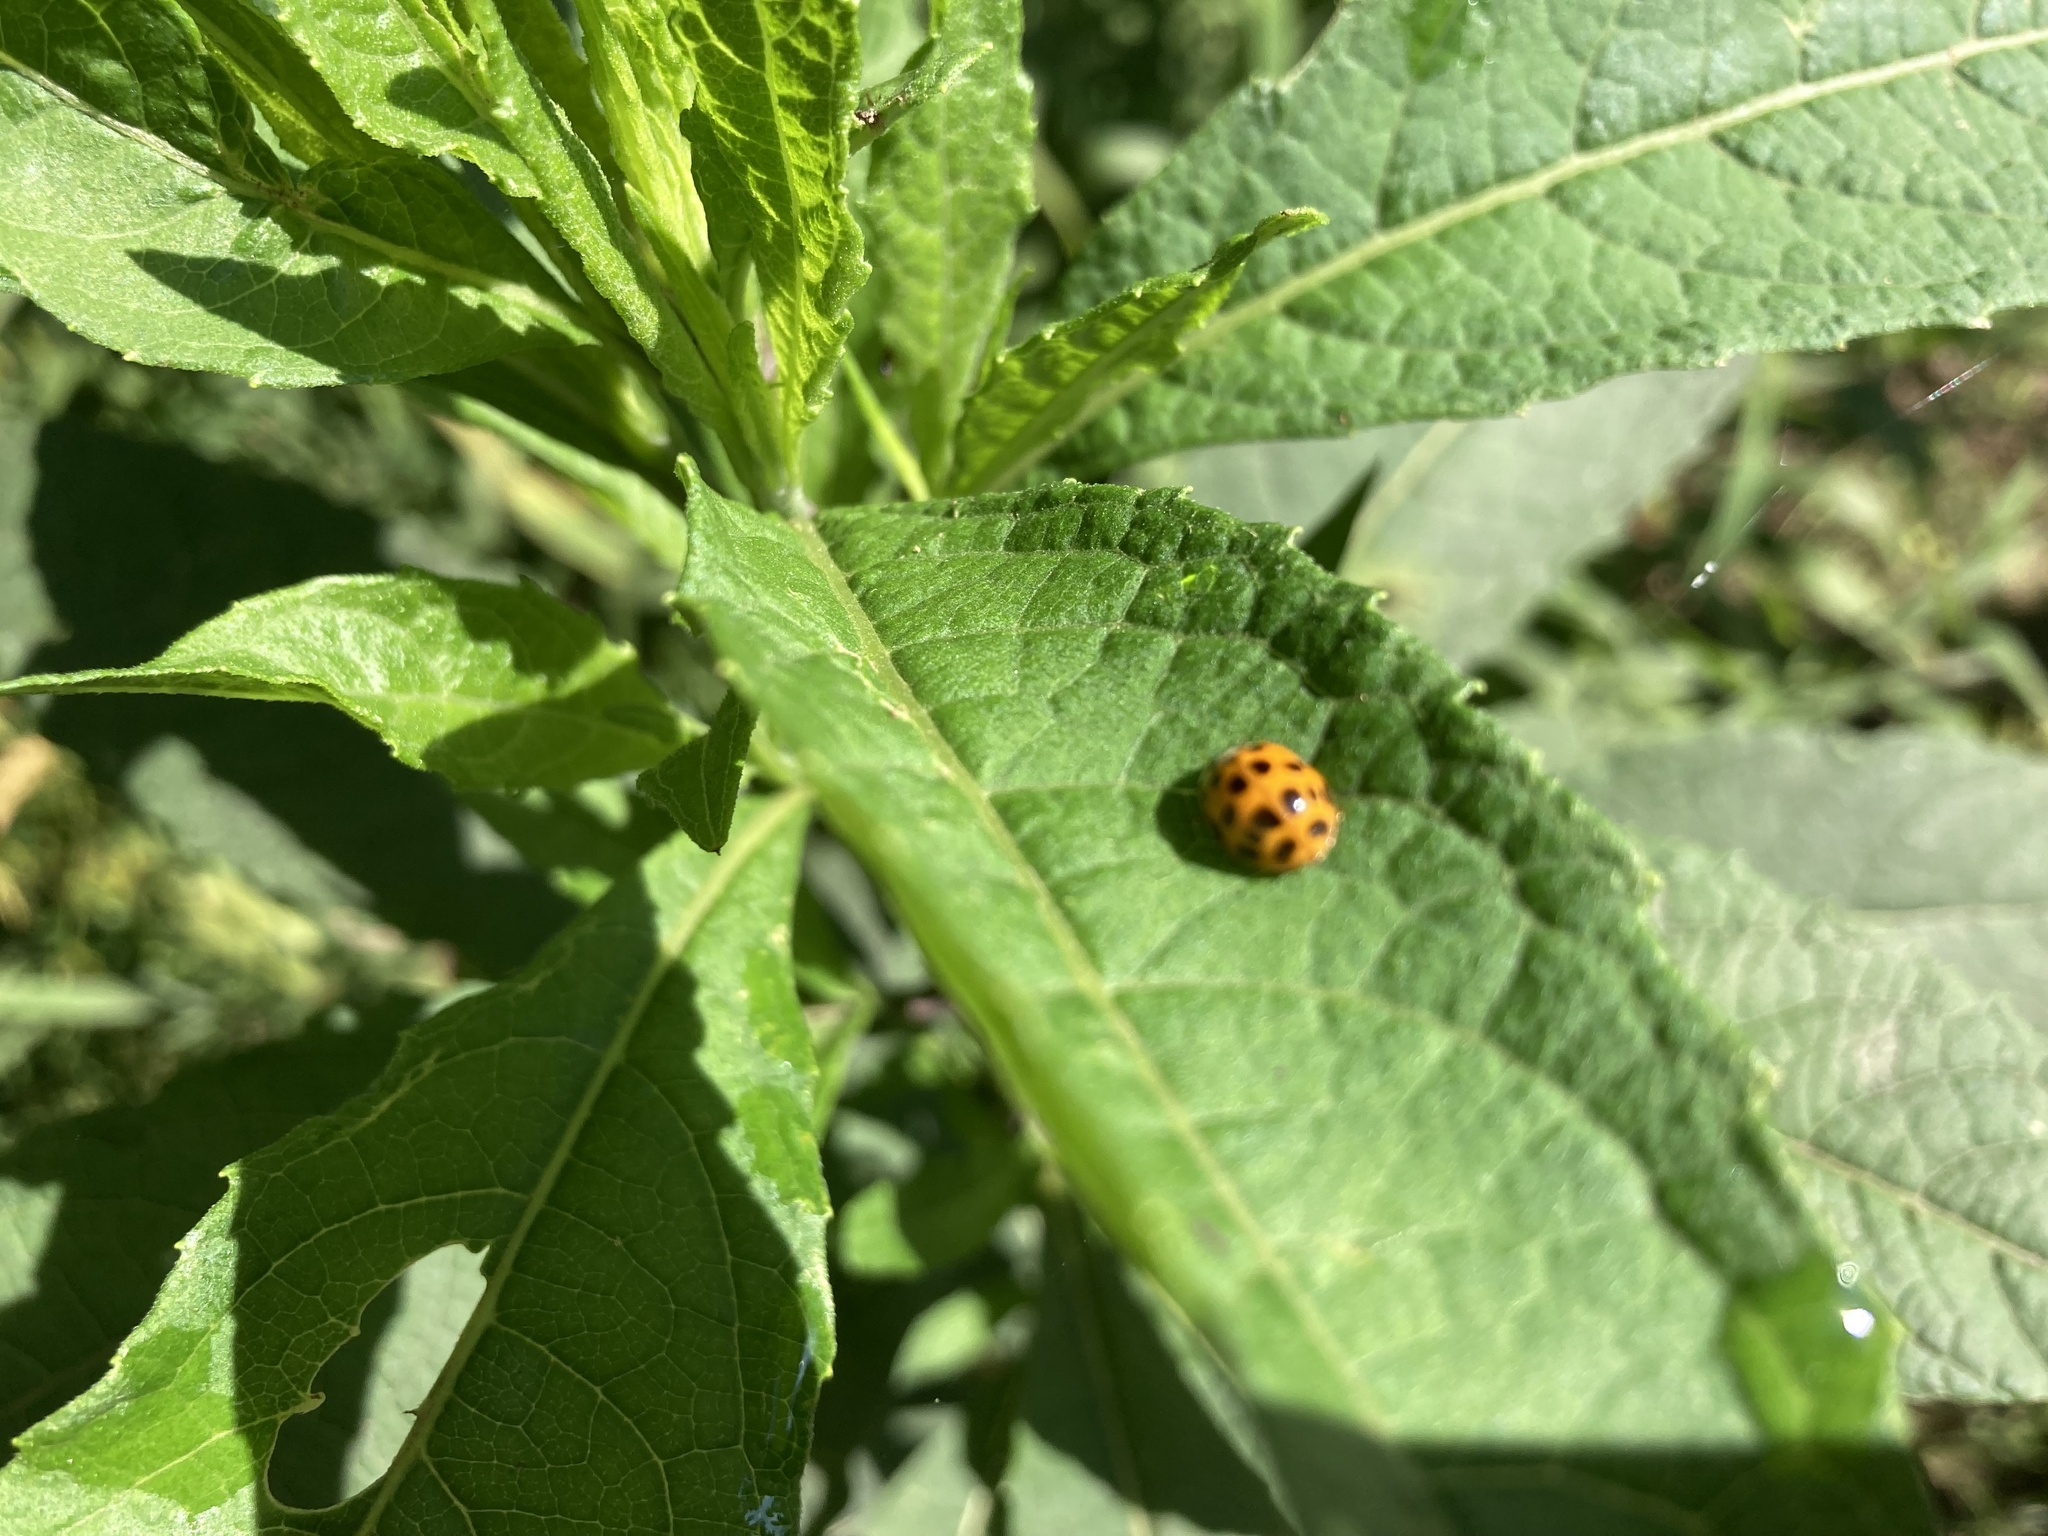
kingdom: Animalia
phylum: Arthropoda
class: Insecta
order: Coleoptera
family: Coccinellidae
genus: Harmonia
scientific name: Harmonia axyridis
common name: Harlequin ladybird
